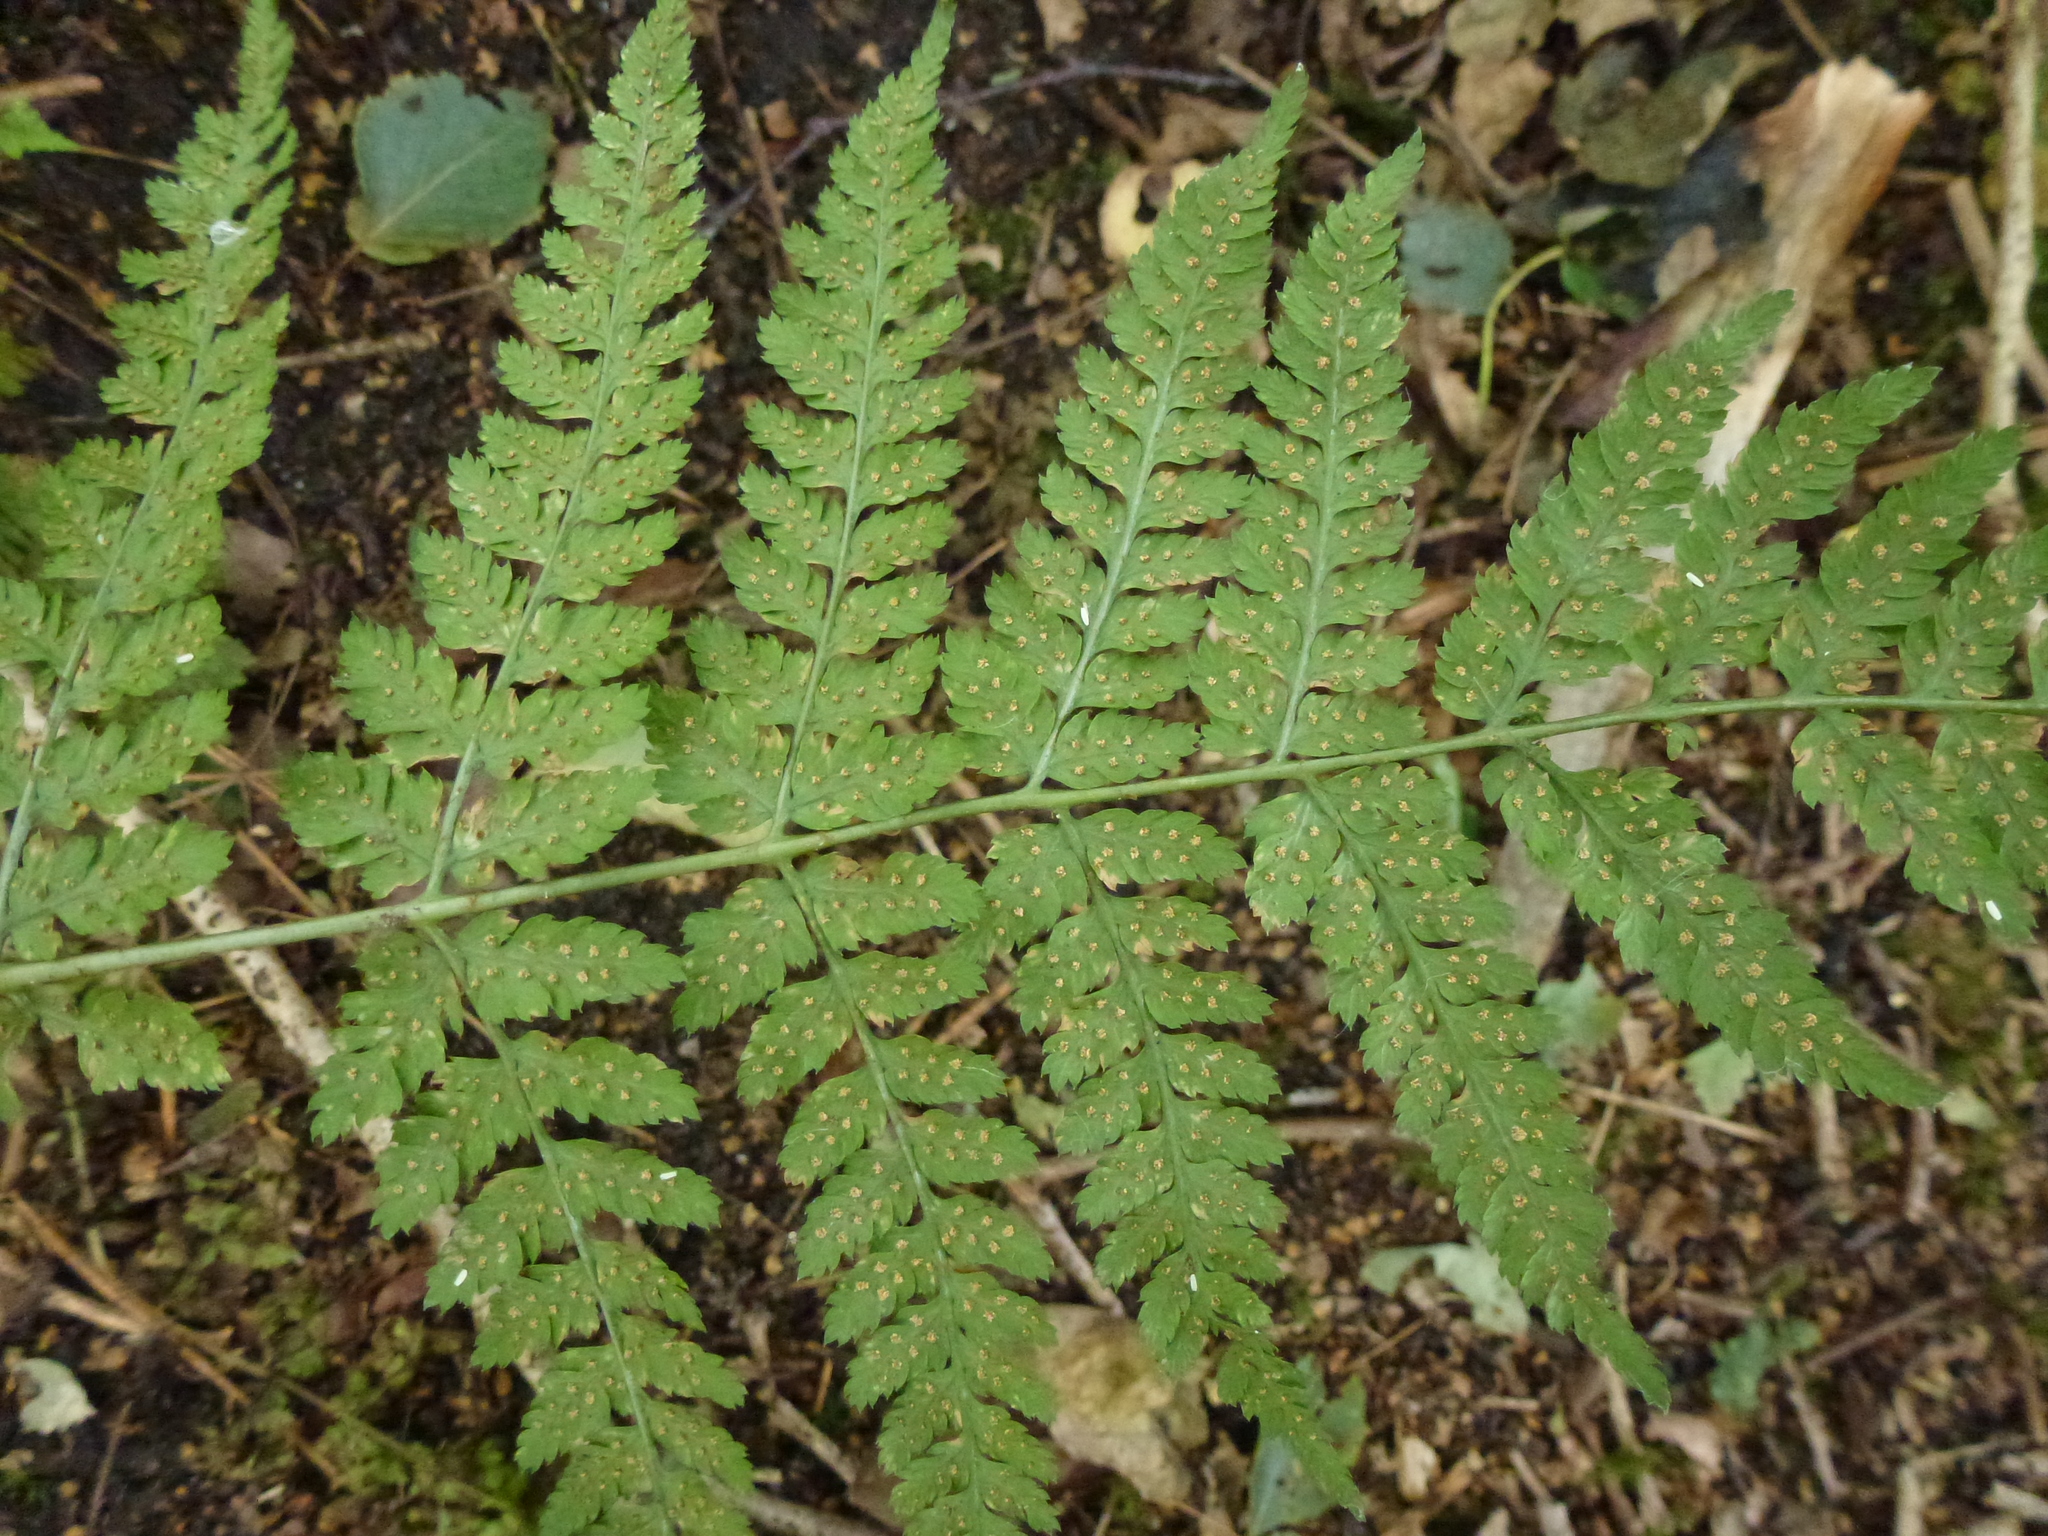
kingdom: Plantae
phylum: Tracheophyta
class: Polypodiopsida
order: Polypodiales
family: Dryopteridaceae
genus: Dryopteris
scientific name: Dryopteris dilatata
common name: Broad buckler-fern
